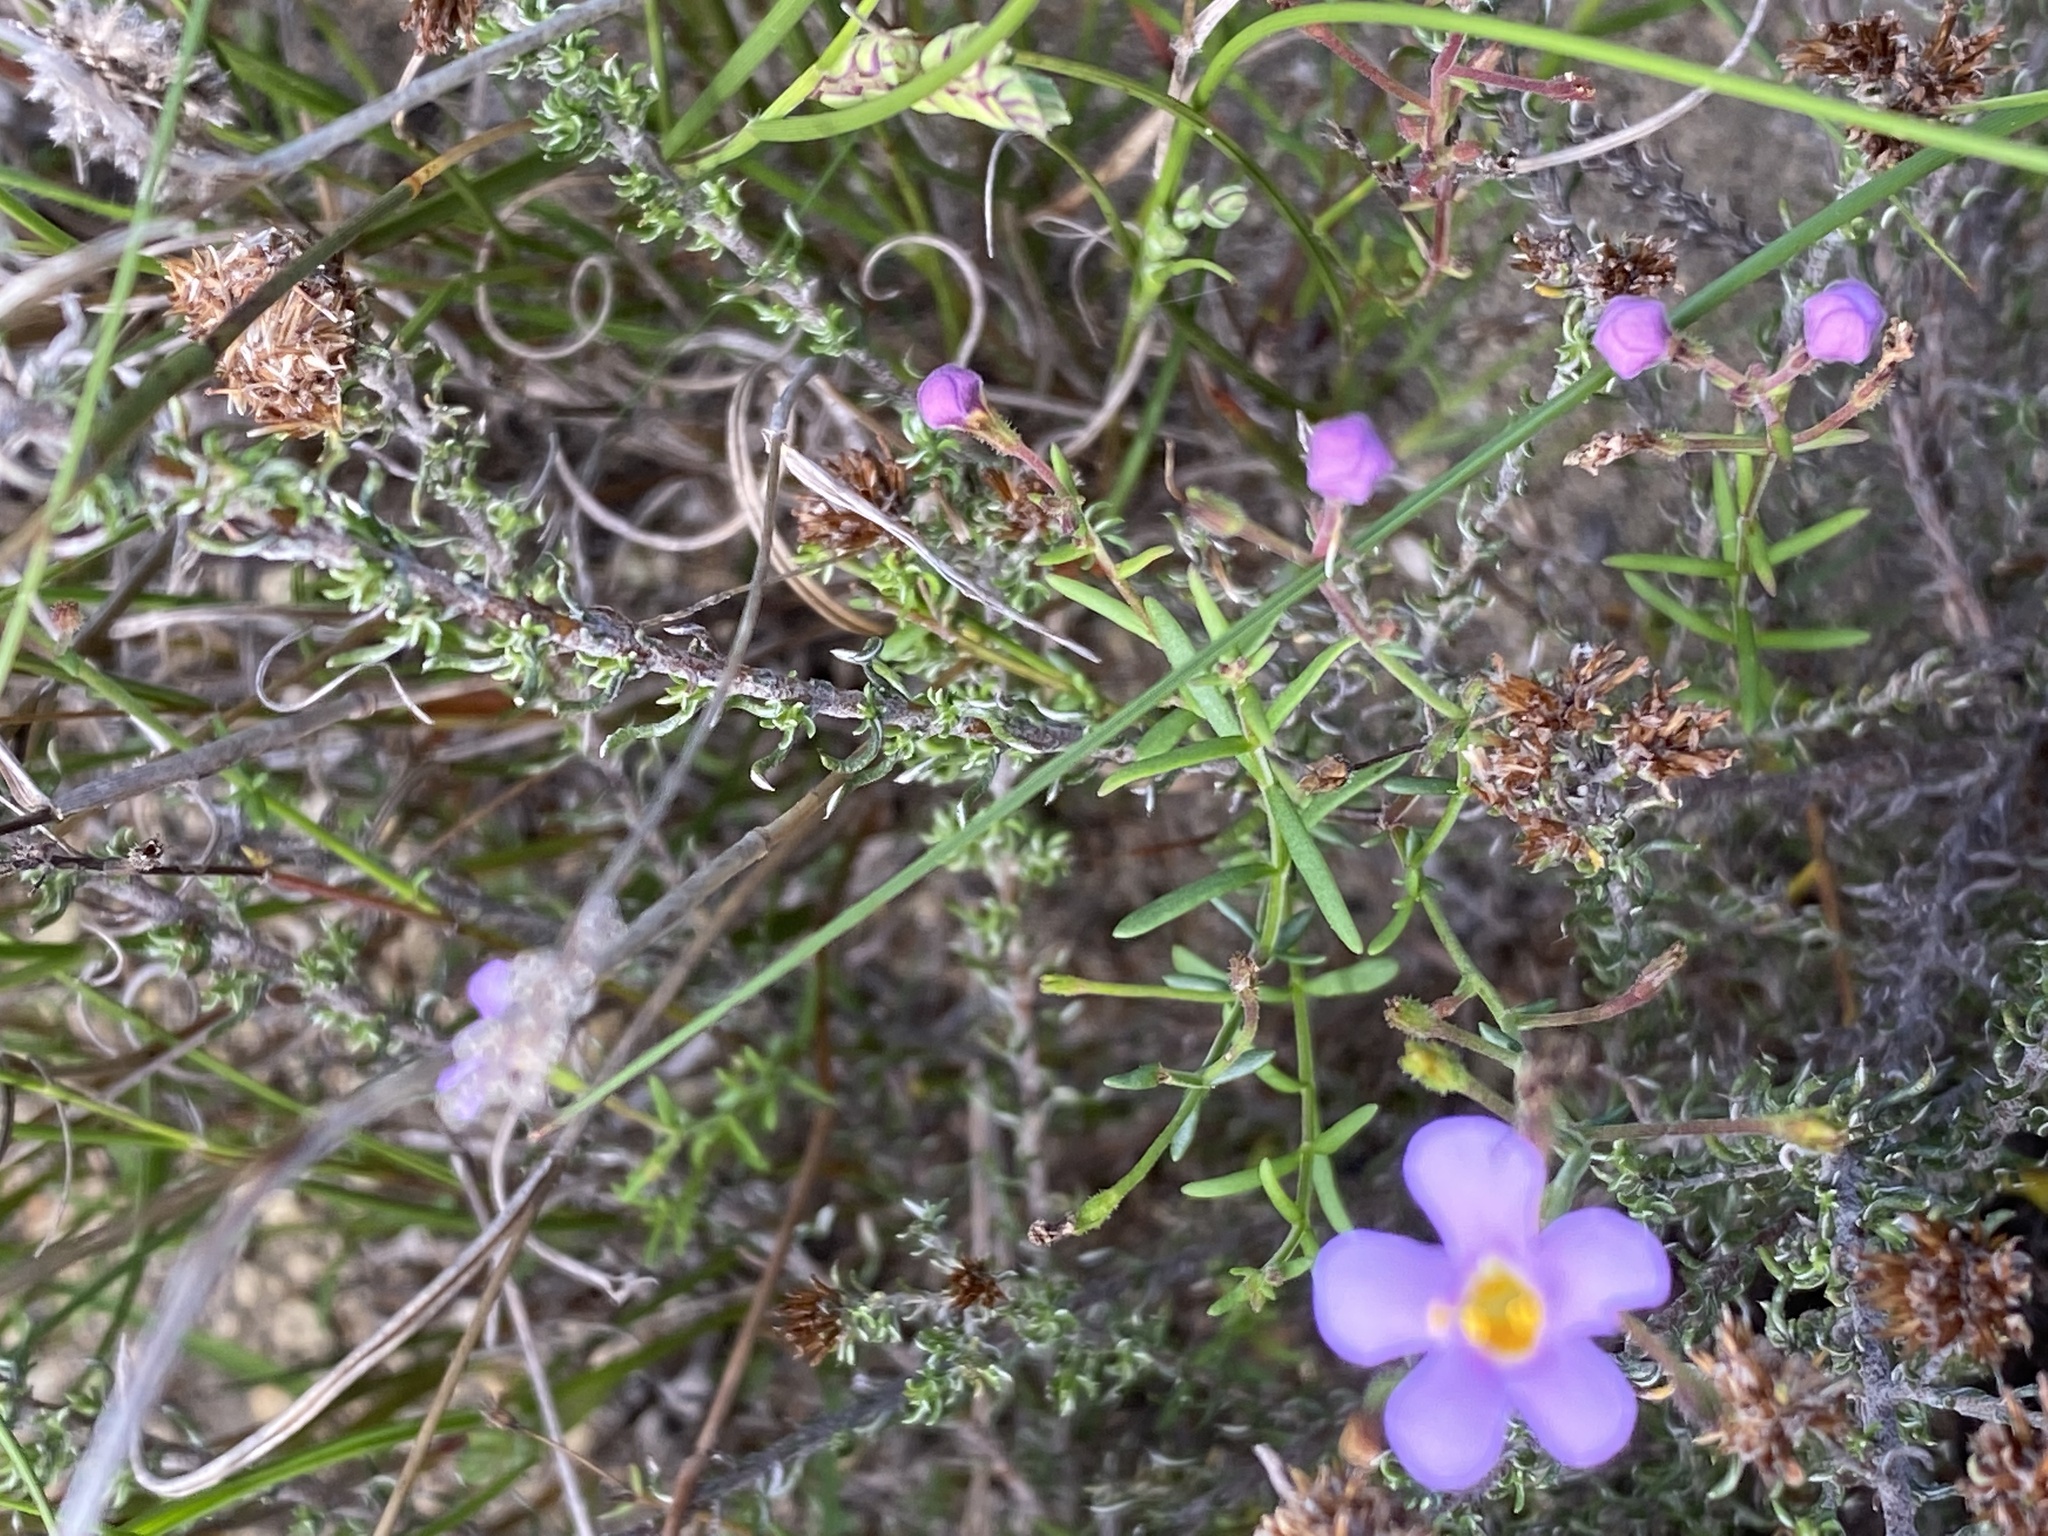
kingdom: Plantae
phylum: Tracheophyta
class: Magnoliopsida
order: Lamiales
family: Scrophulariaceae
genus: Chaenostoma
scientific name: Chaenostoma revolutum
